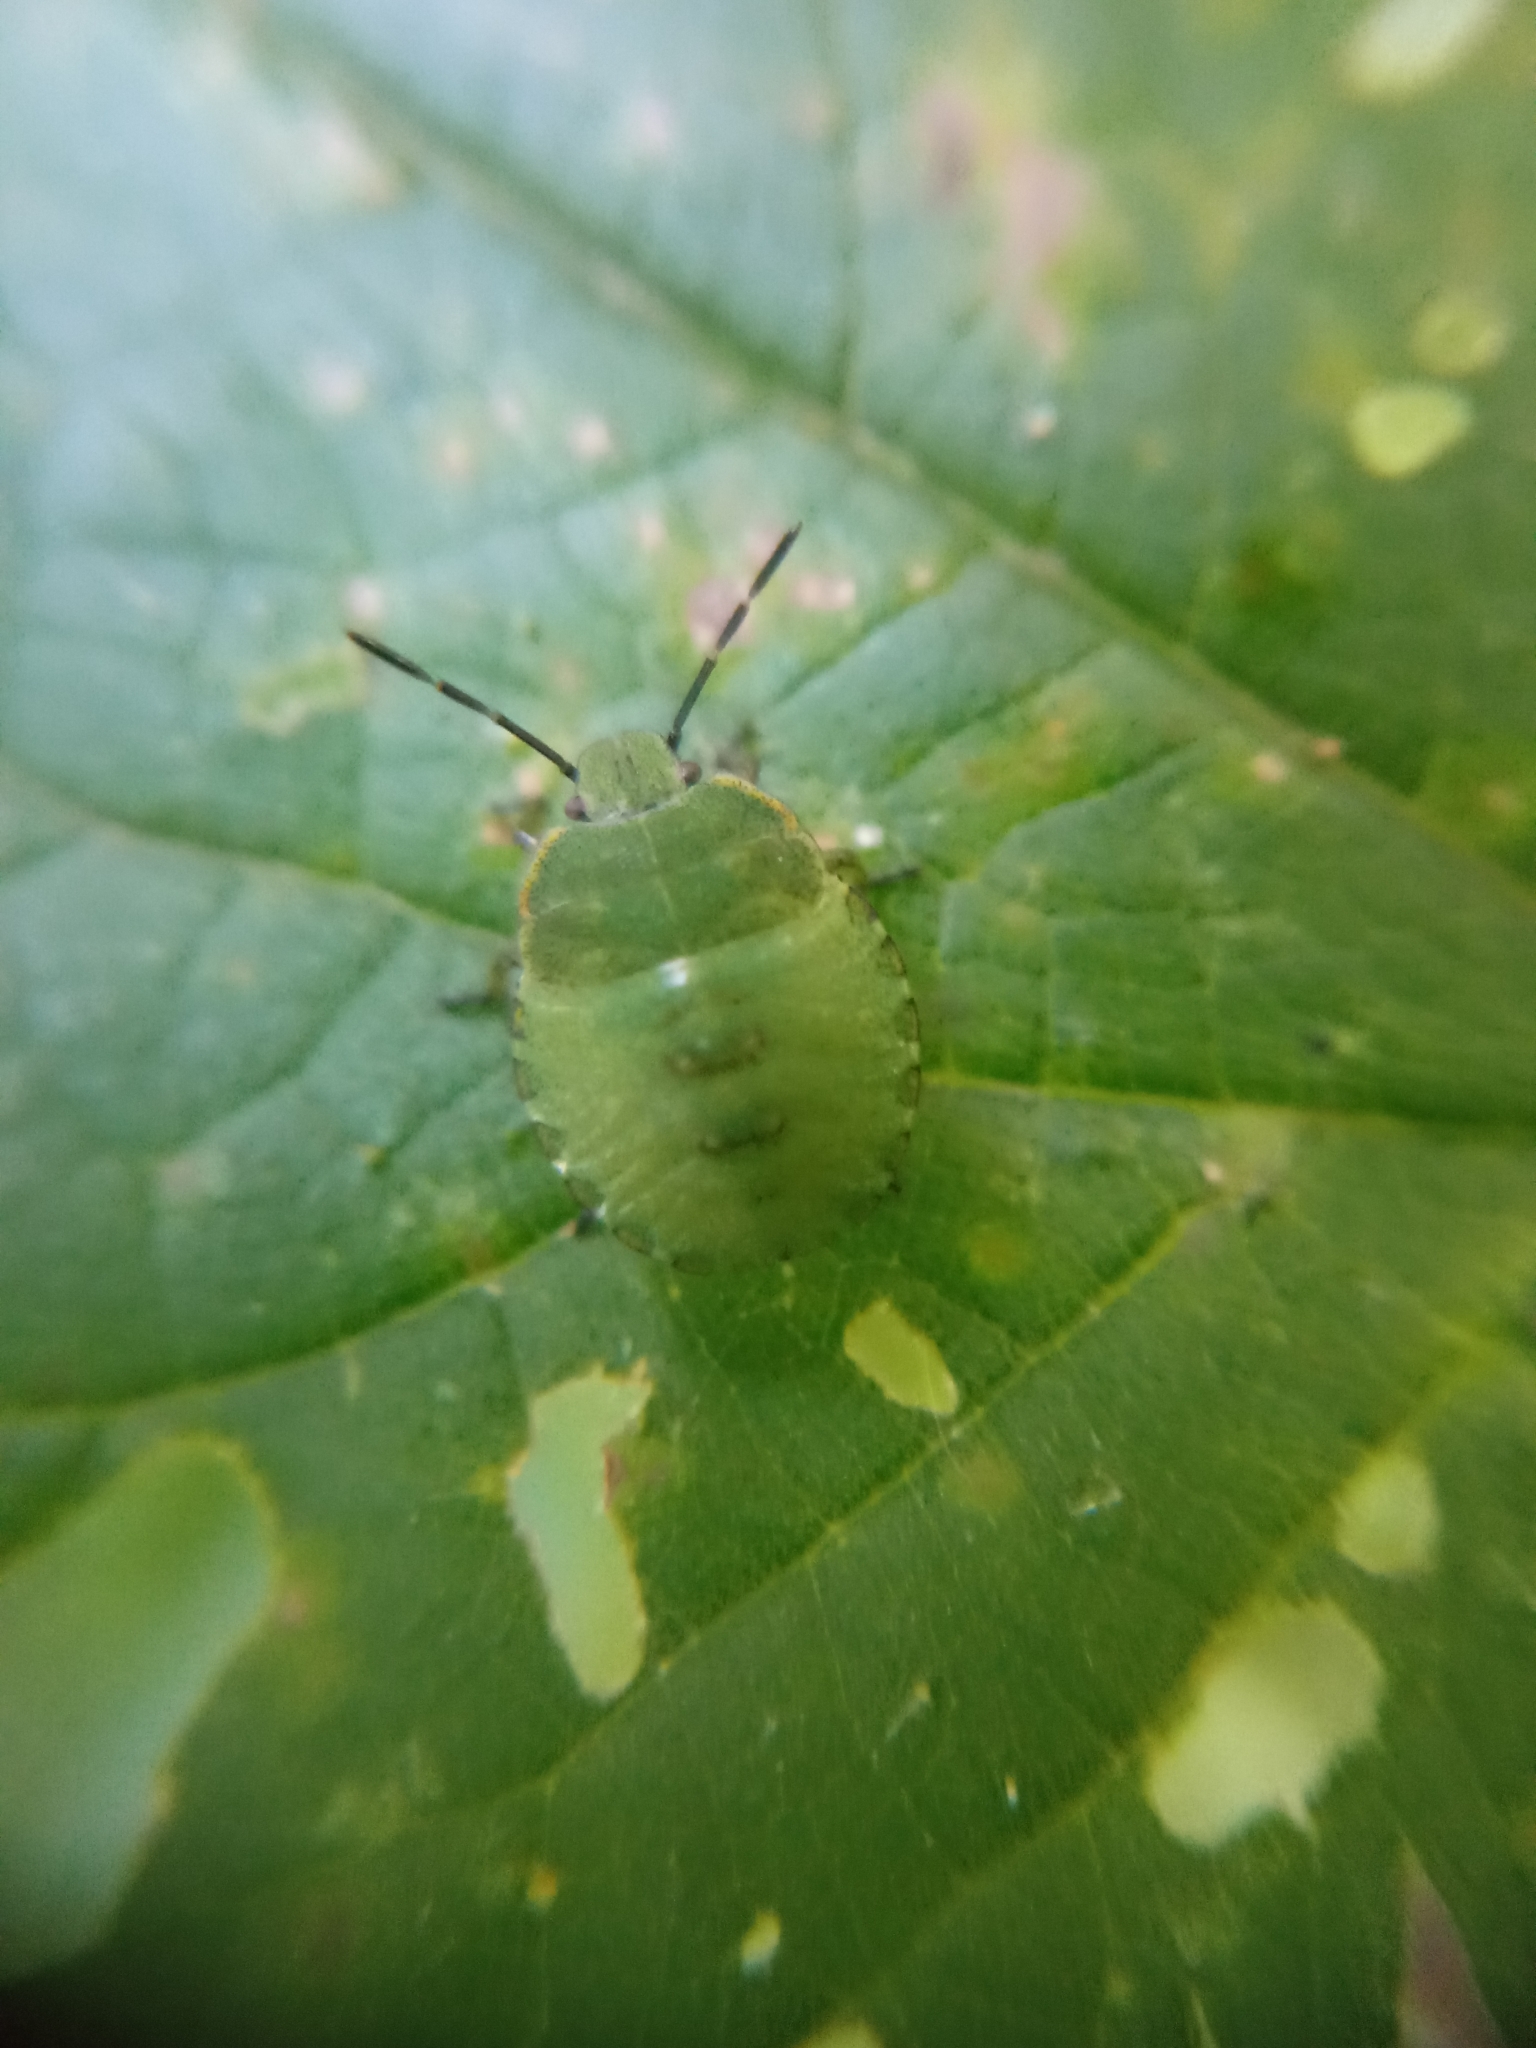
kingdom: Animalia
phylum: Arthropoda
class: Insecta
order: Hemiptera
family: Pentatomidae
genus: Palomena
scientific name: Palomena prasina
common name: Green shieldbug
